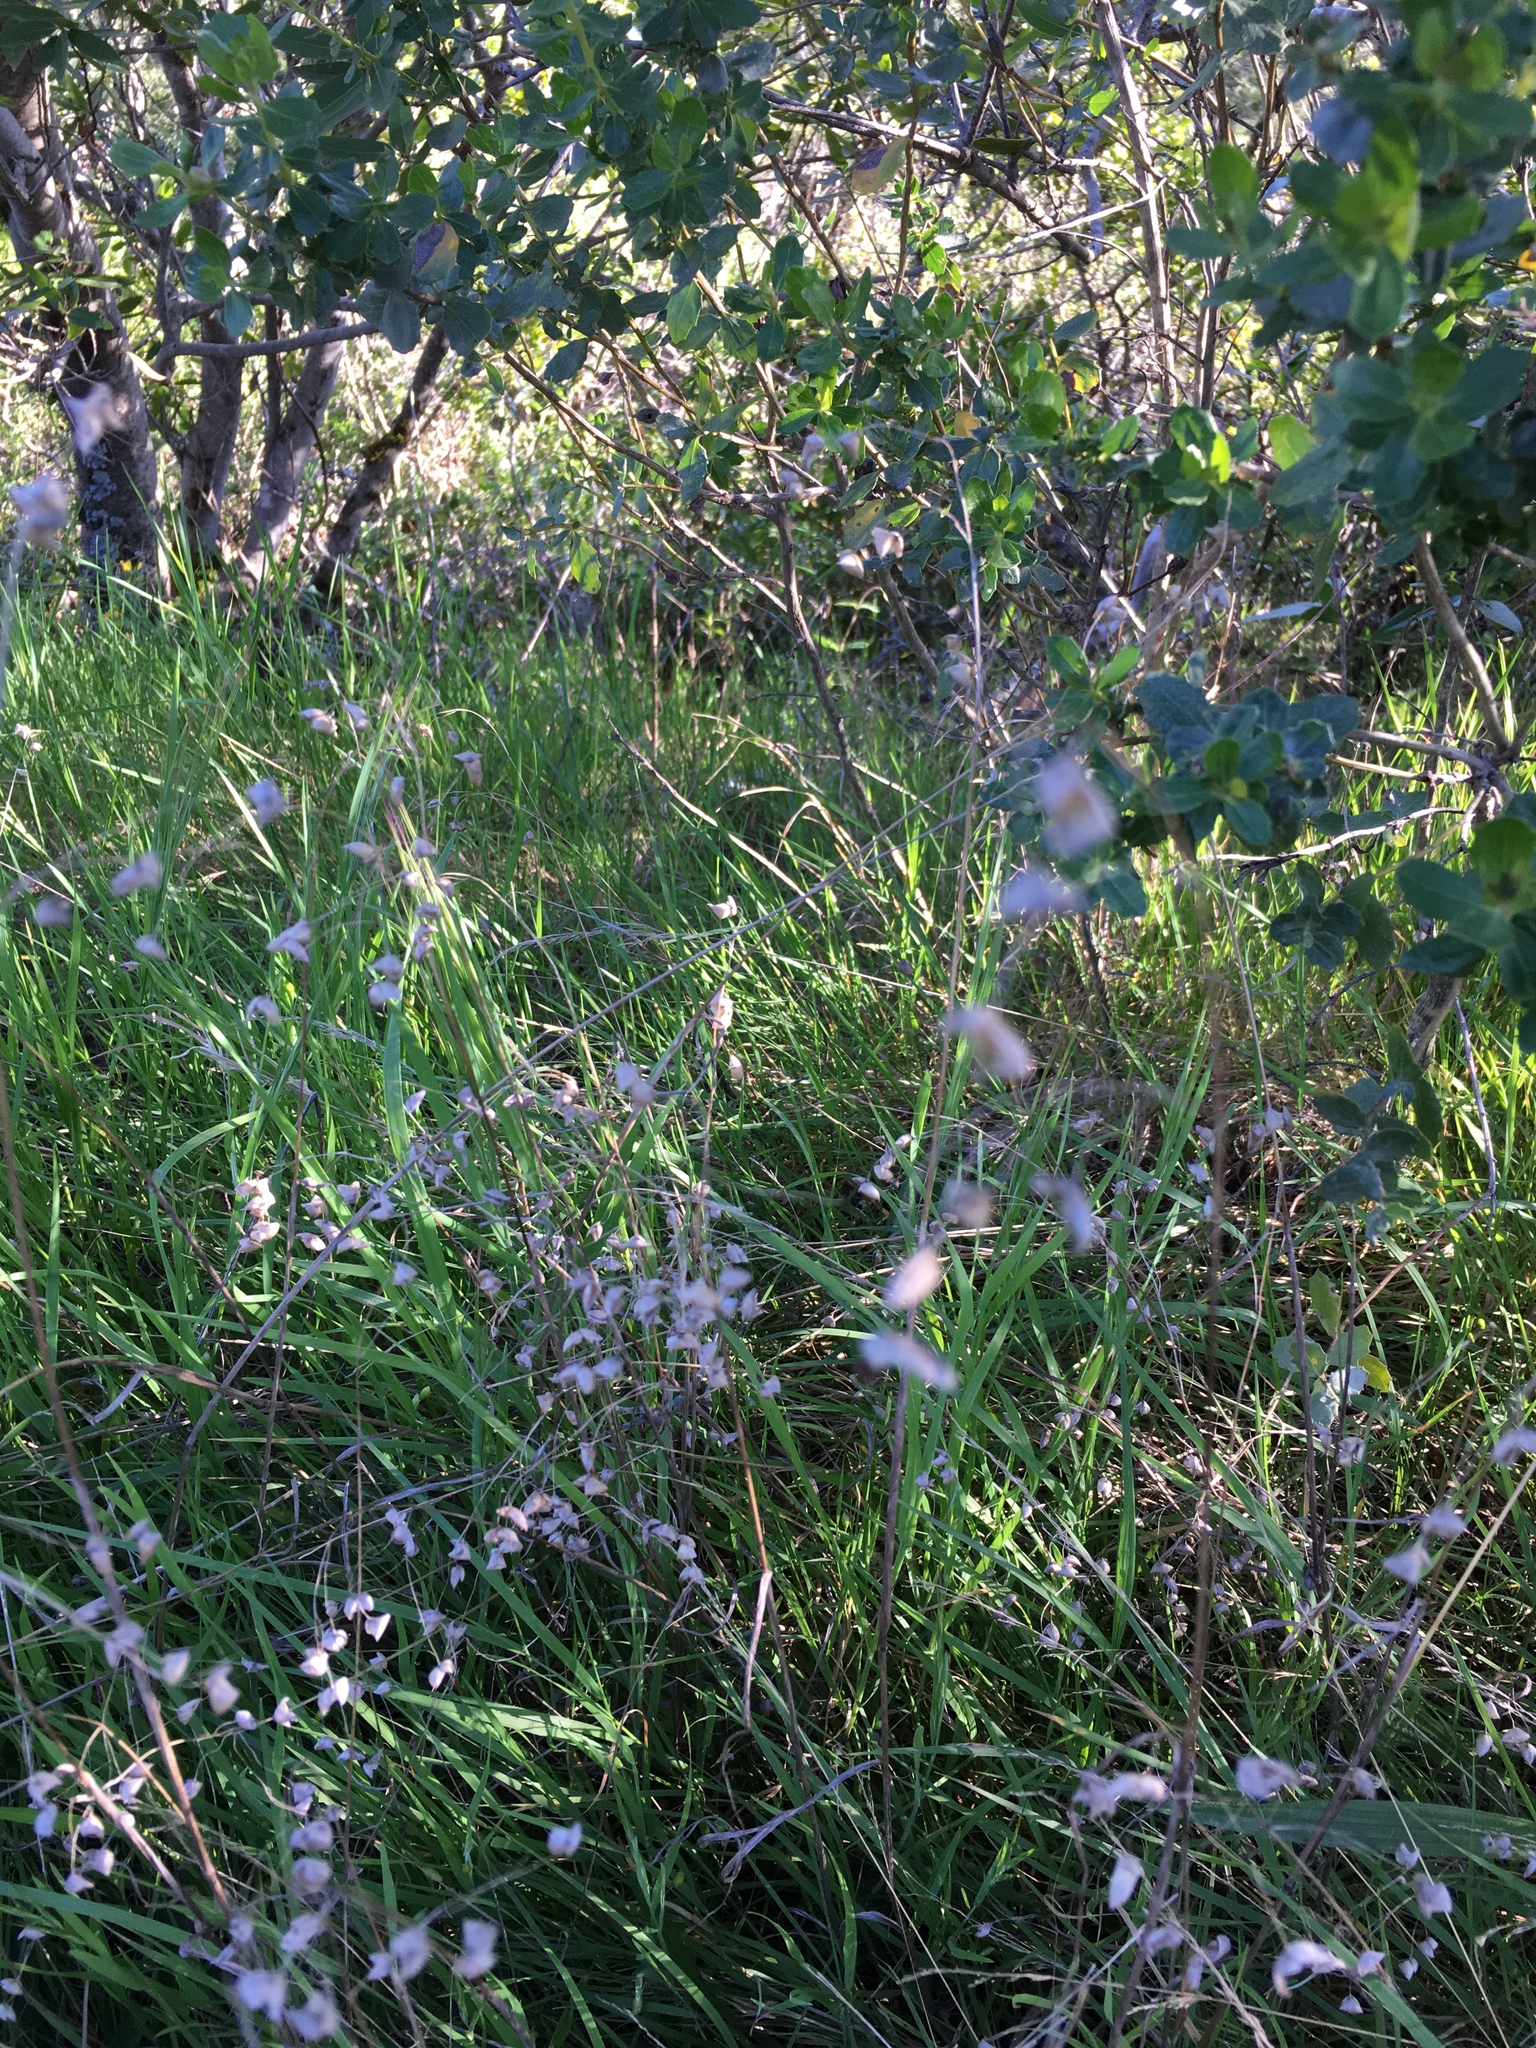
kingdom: Plantae
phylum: Tracheophyta
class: Liliopsida
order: Poales
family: Poaceae
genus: Briza
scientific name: Briza maxima
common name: Big quakinggrass
